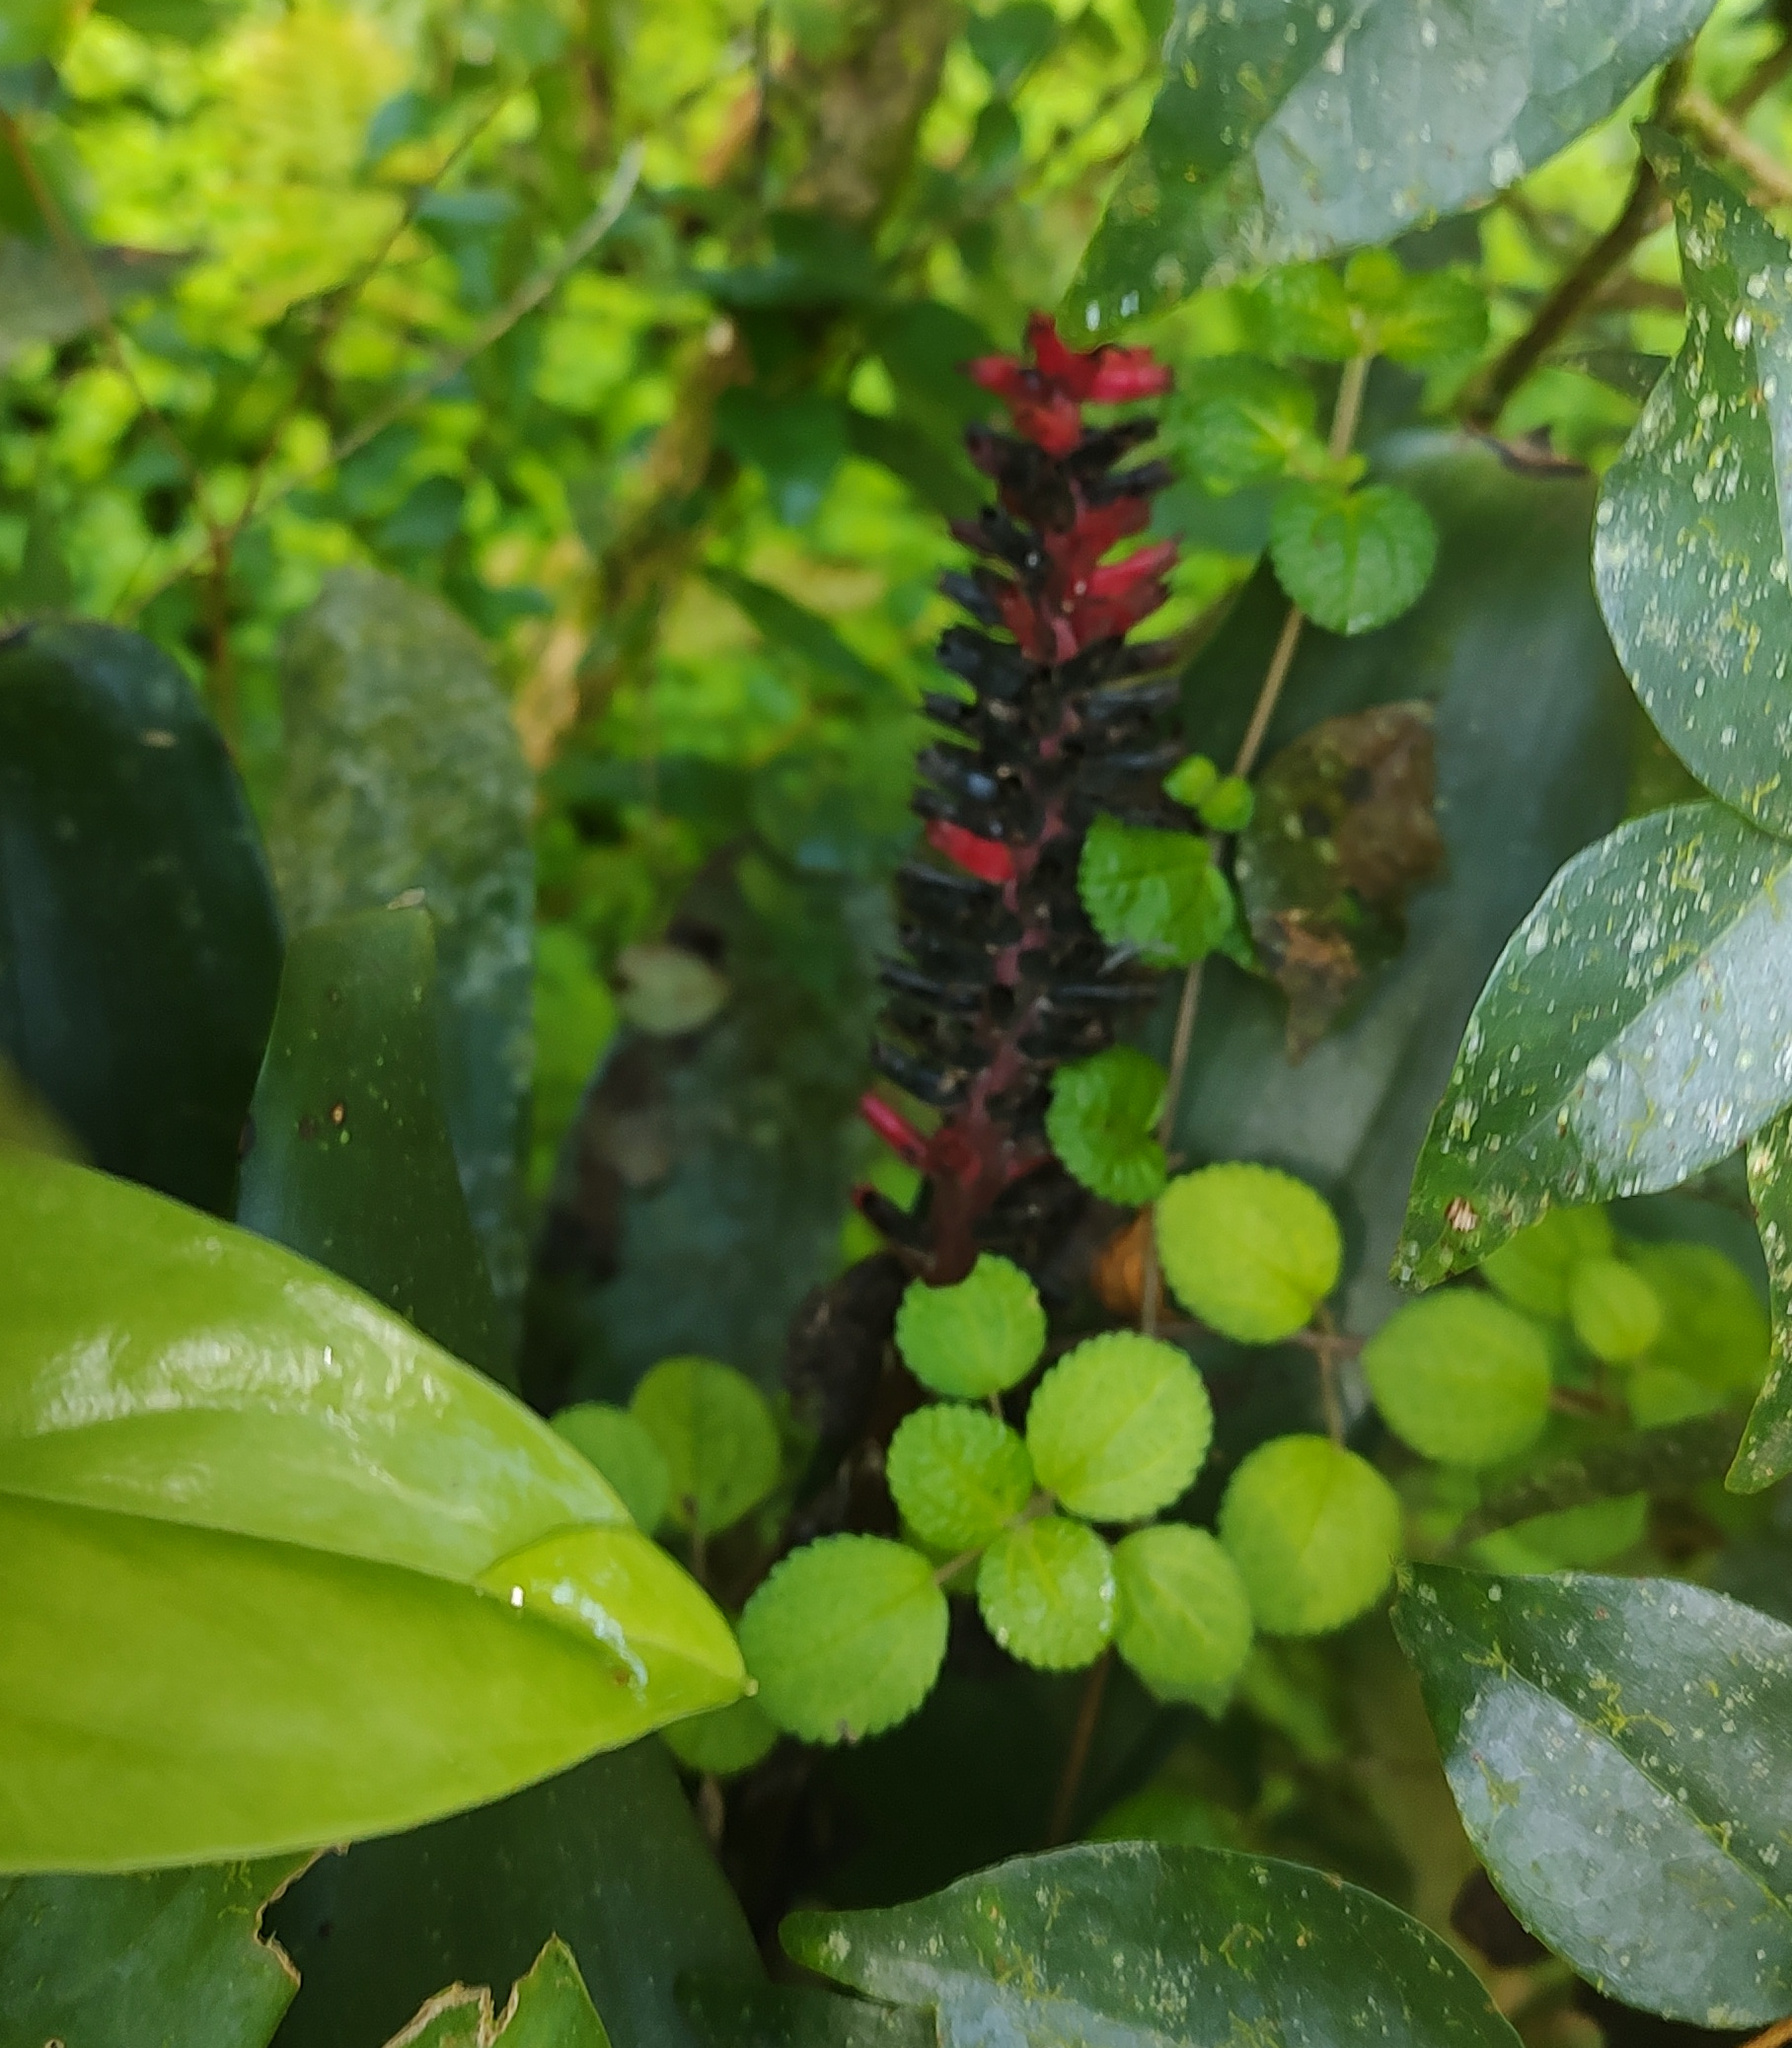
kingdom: Plantae
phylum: Tracheophyta
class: Liliopsida
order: Poales
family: Bromeliaceae
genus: Aechmea
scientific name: Aechmea cylindrata
